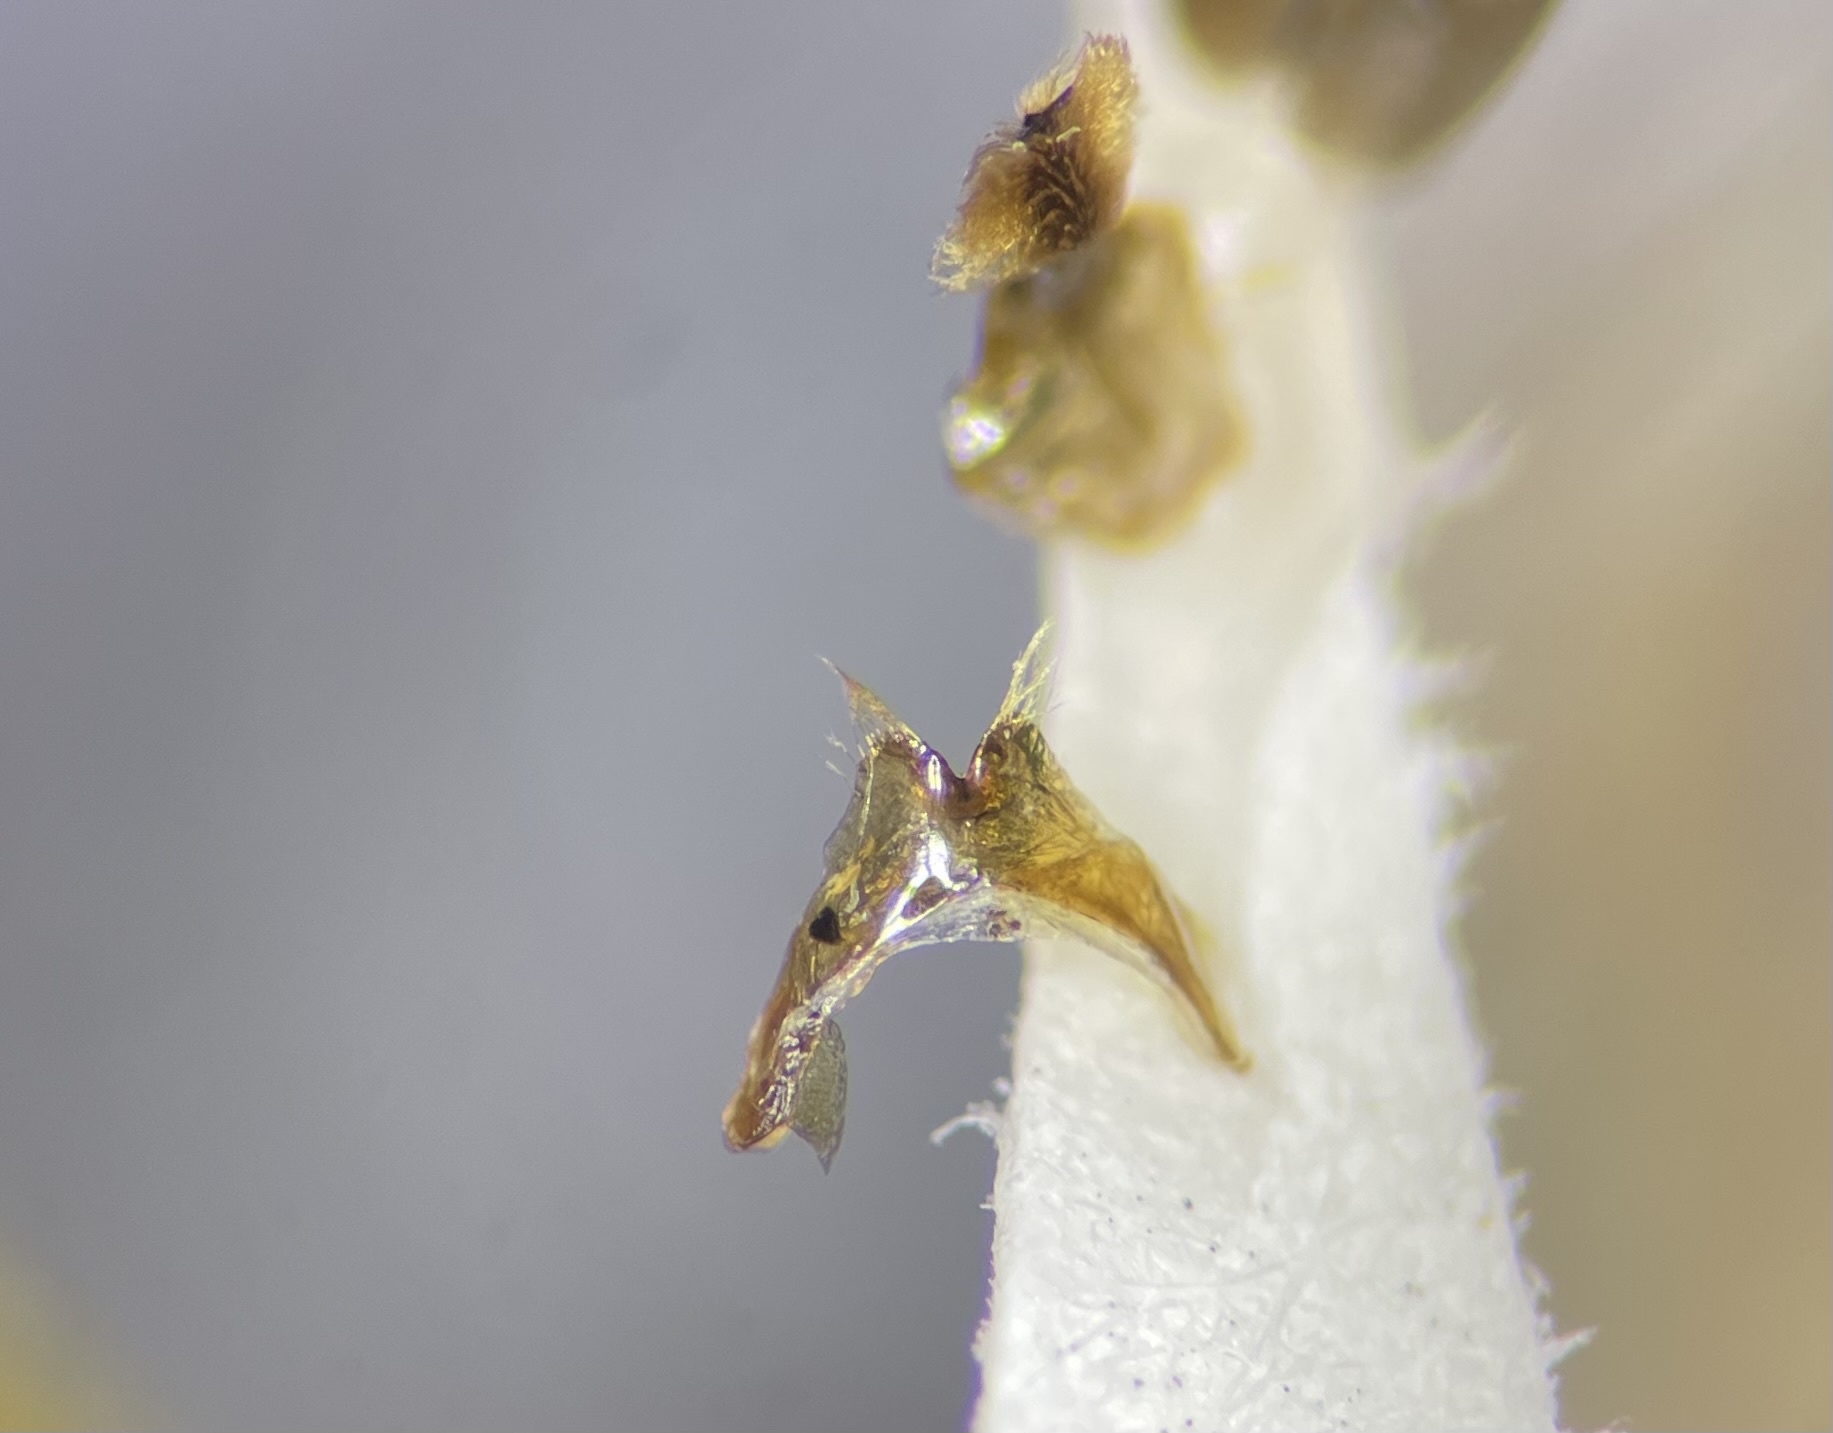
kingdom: Animalia
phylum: Arthropoda
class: Insecta
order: Hymenoptera
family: Andrenidae
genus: Andrena
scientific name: Andrena hilaris
